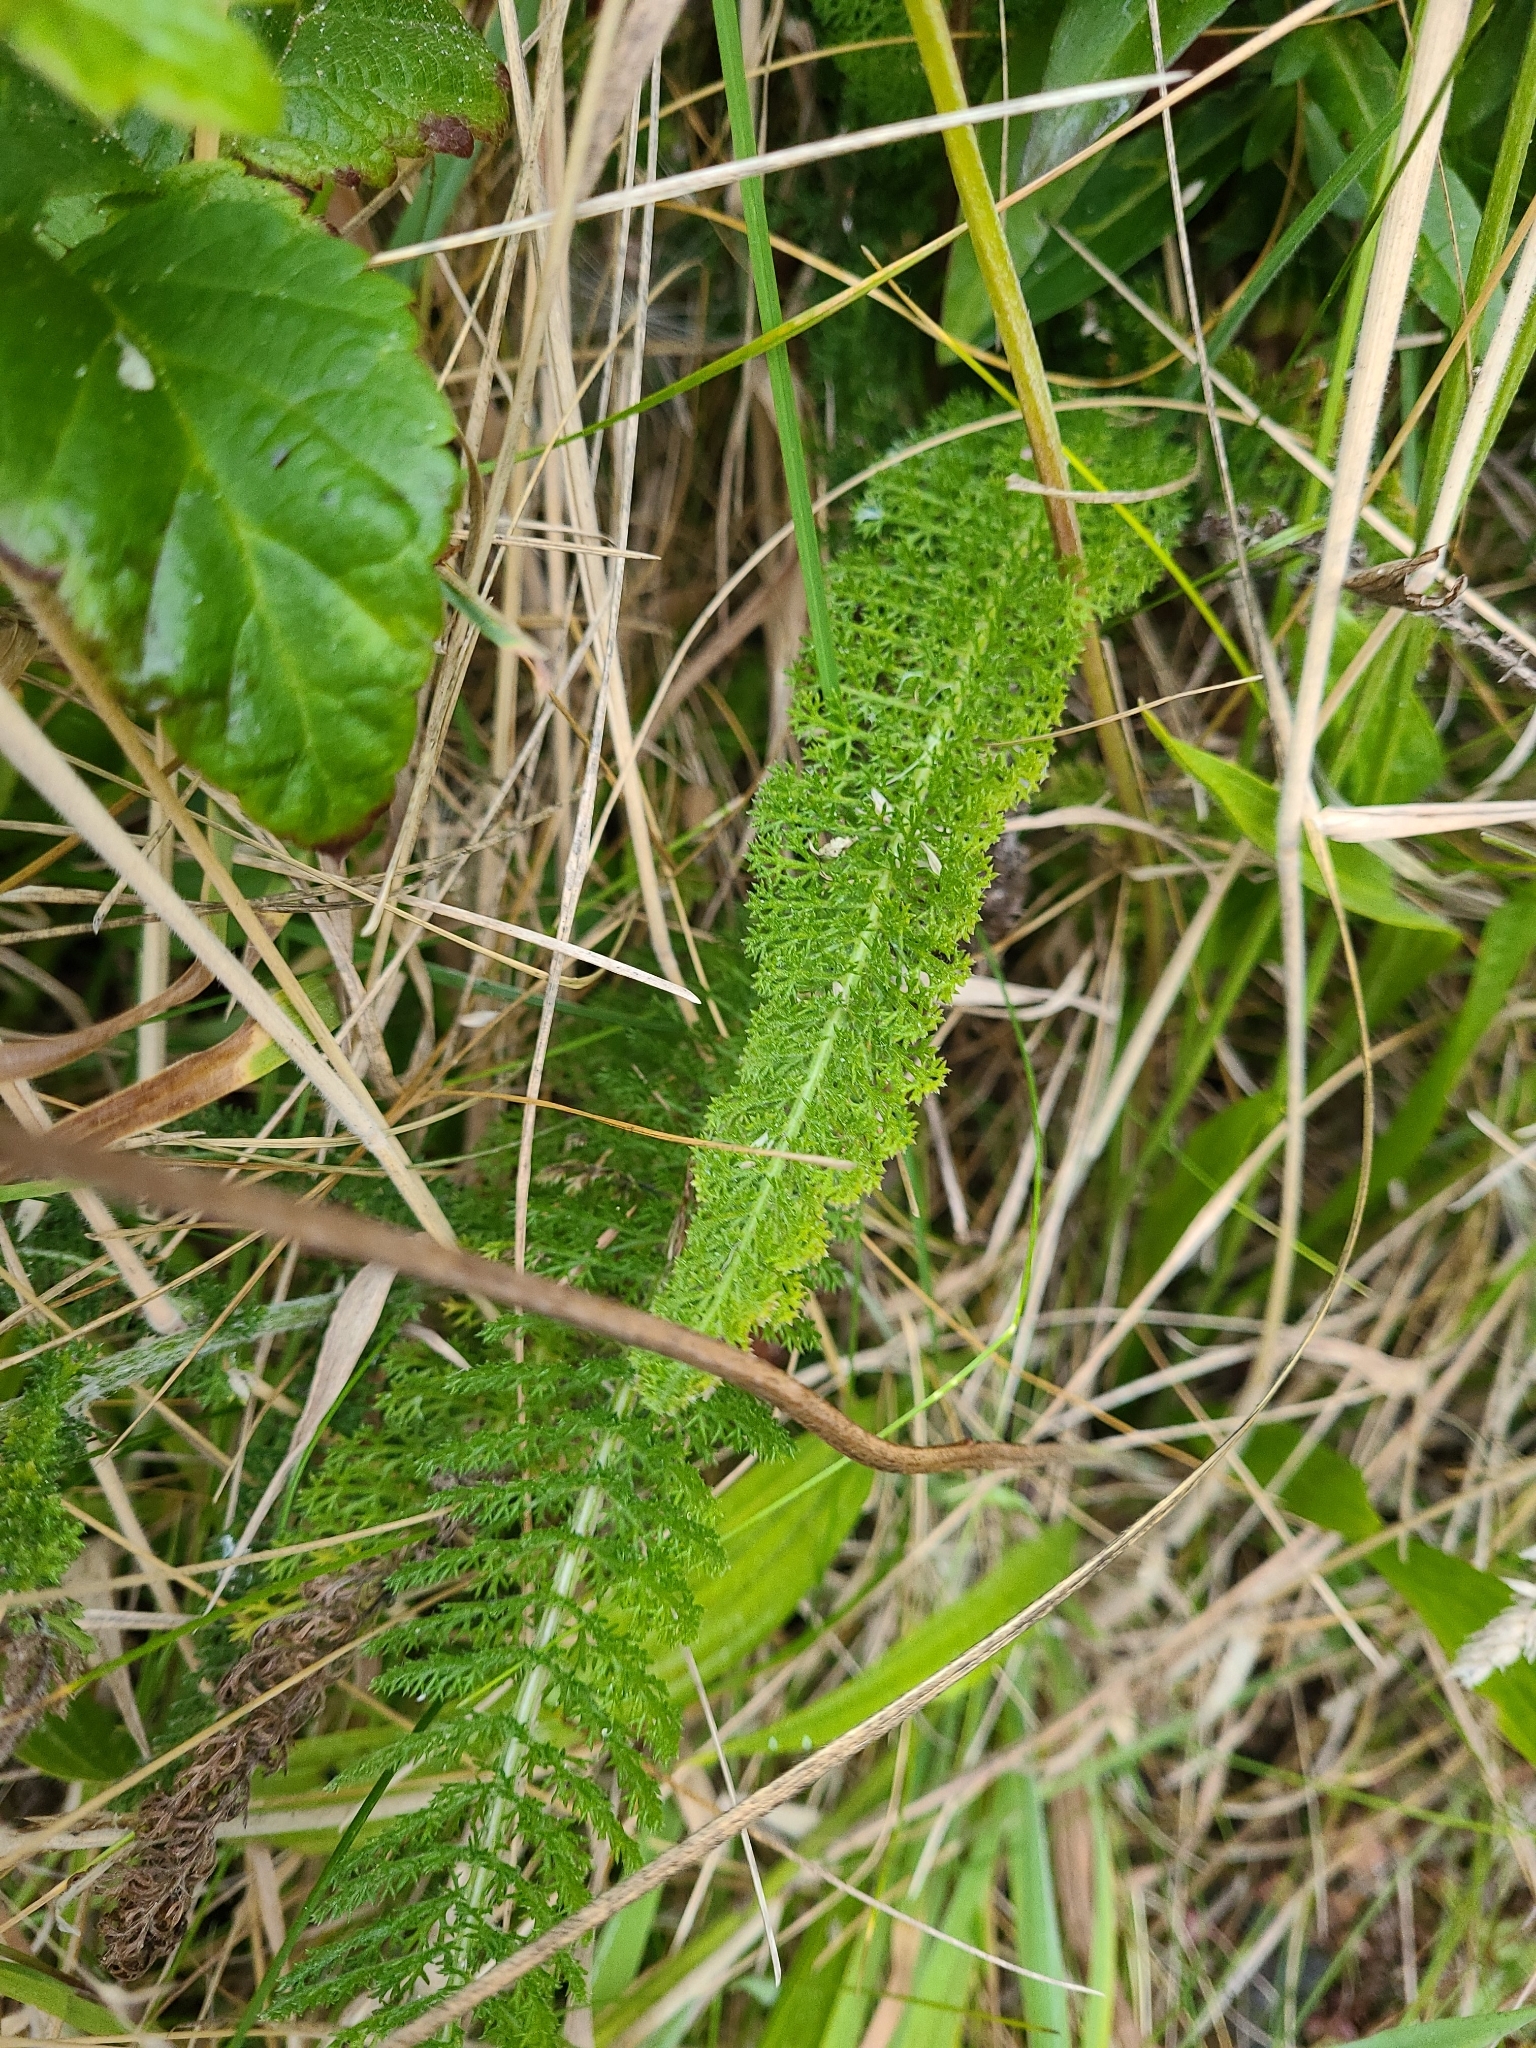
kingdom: Plantae
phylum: Tracheophyta
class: Magnoliopsida
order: Asterales
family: Asteraceae
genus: Achillea
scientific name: Achillea millefolium
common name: Yarrow
